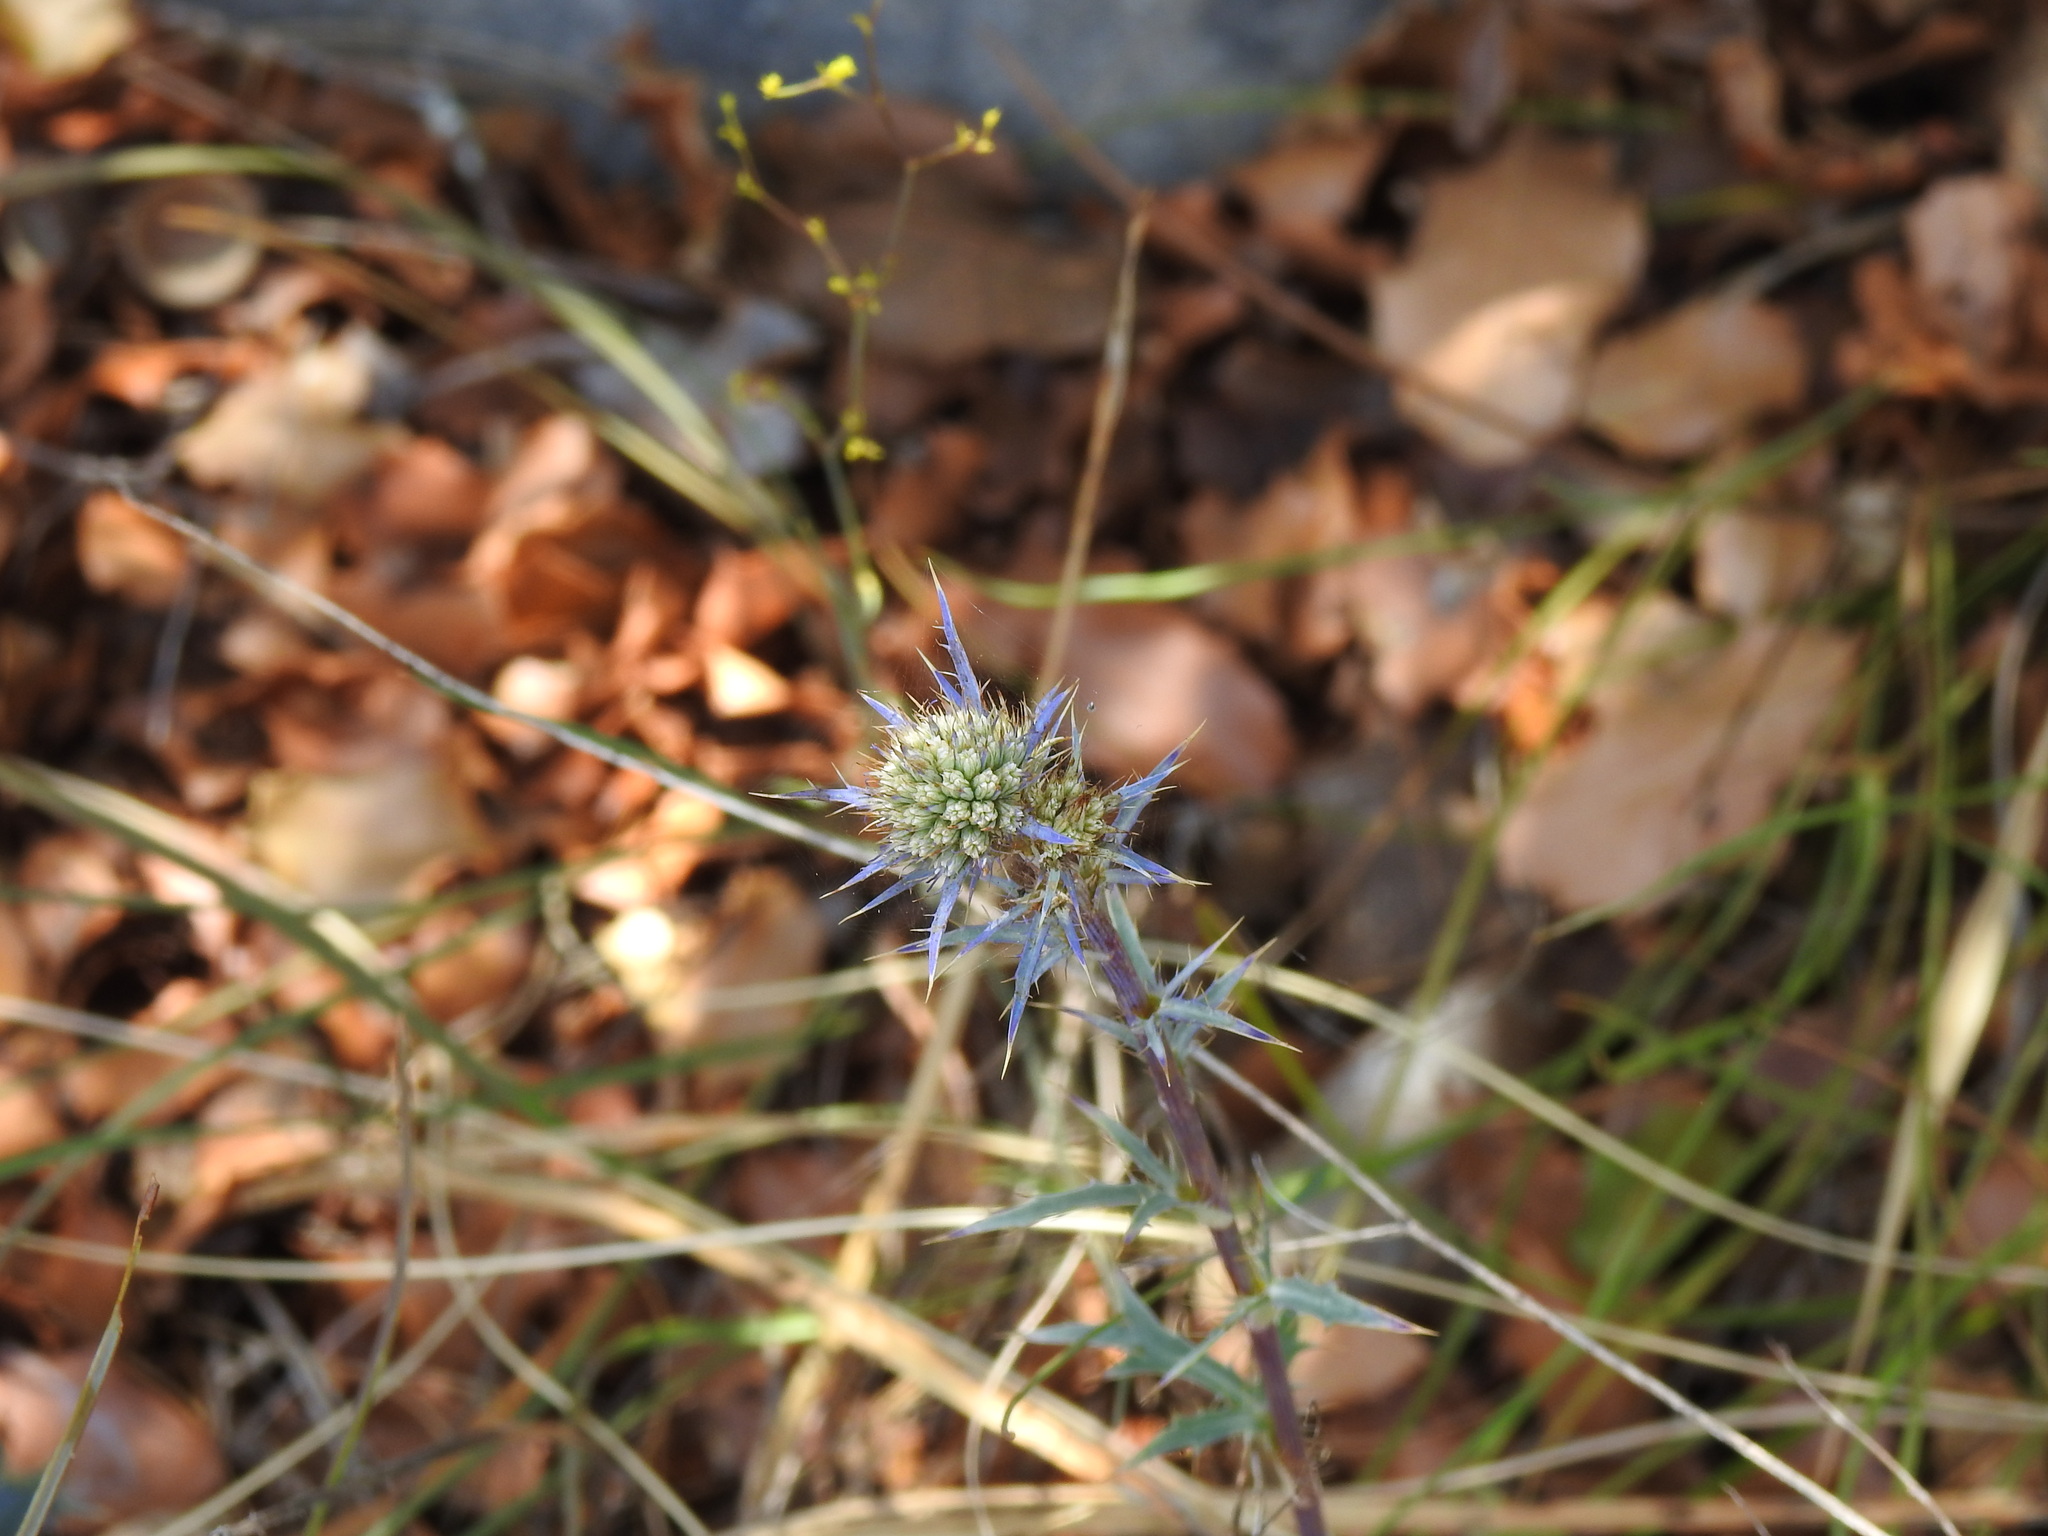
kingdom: Plantae
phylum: Tracheophyta
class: Magnoliopsida
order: Apiales
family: Apiaceae
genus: Eryngium
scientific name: Eryngium dilatatum
